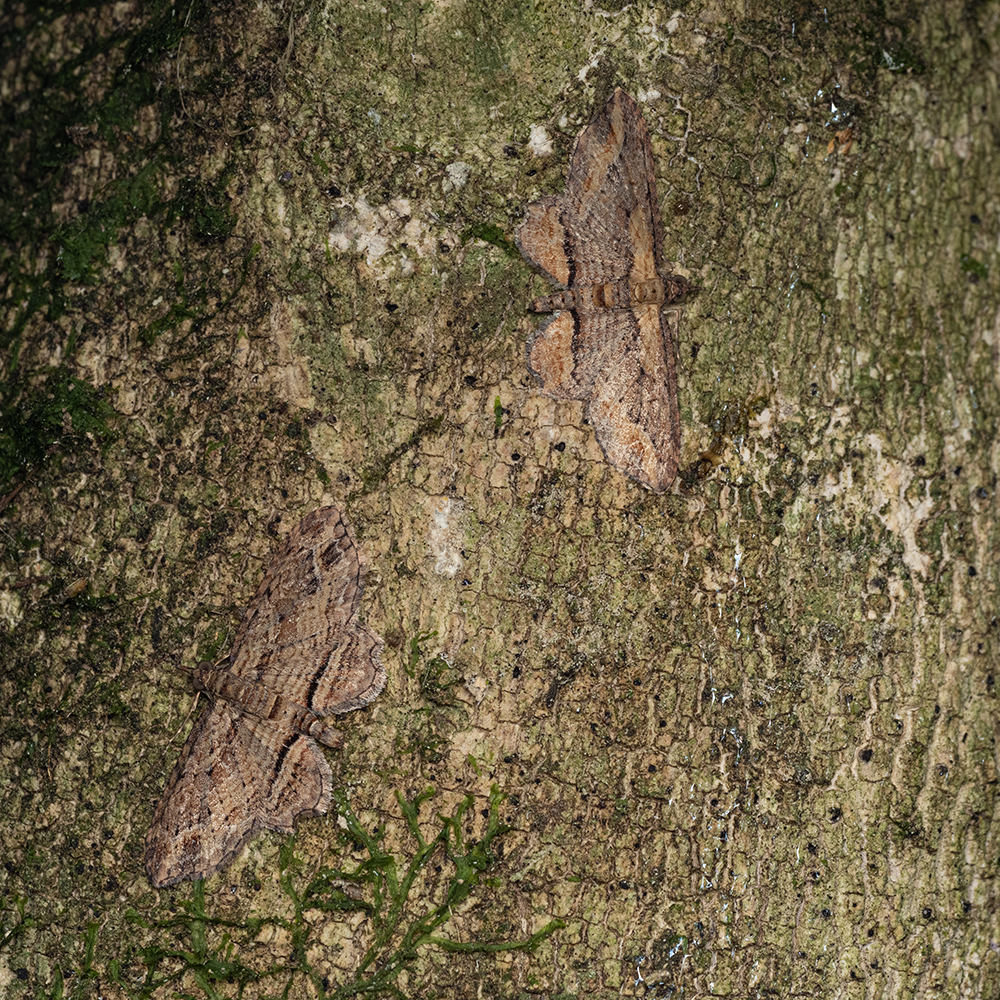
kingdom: Animalia
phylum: Arthropoda
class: Insecta
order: Lepidoptera
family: Geometridae
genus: Chloroclystis
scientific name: Chloroclystis filata
